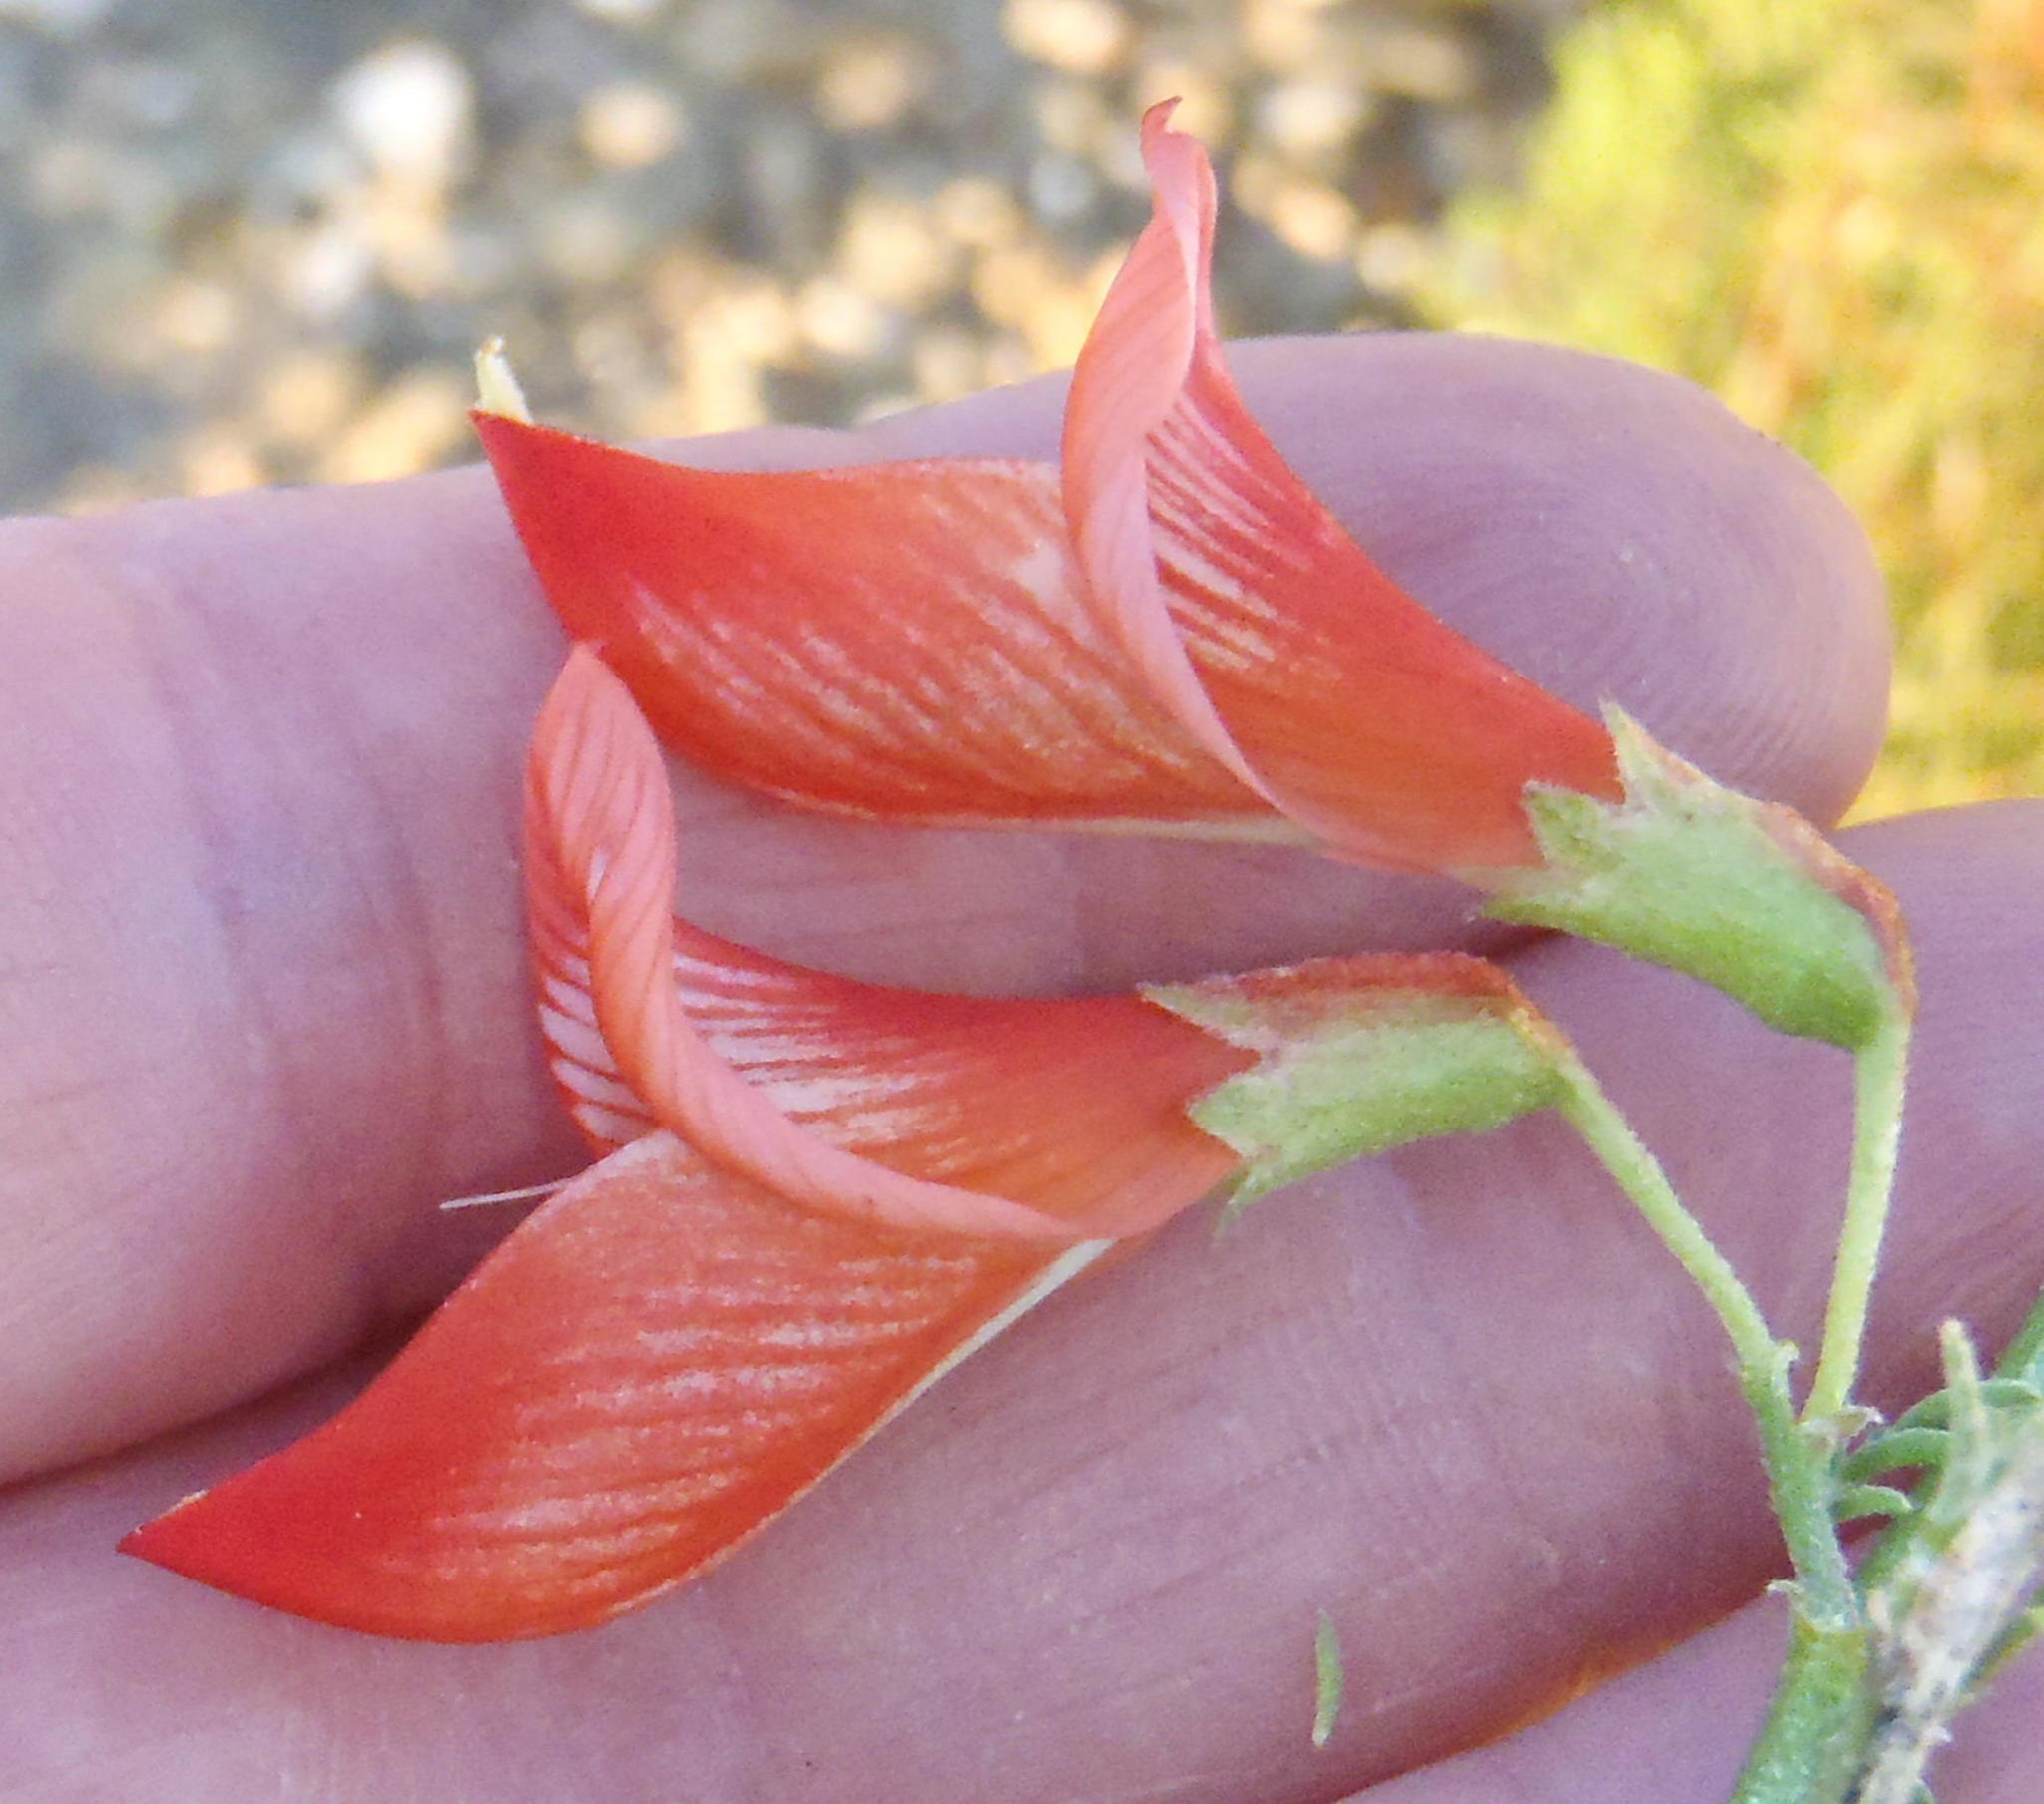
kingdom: Plantae
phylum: Tracheophyta
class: Magnoliopsida
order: Fabales
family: Fabaceae
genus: Lessertia
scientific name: Lessertia frutescens
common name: Balloon-pea
